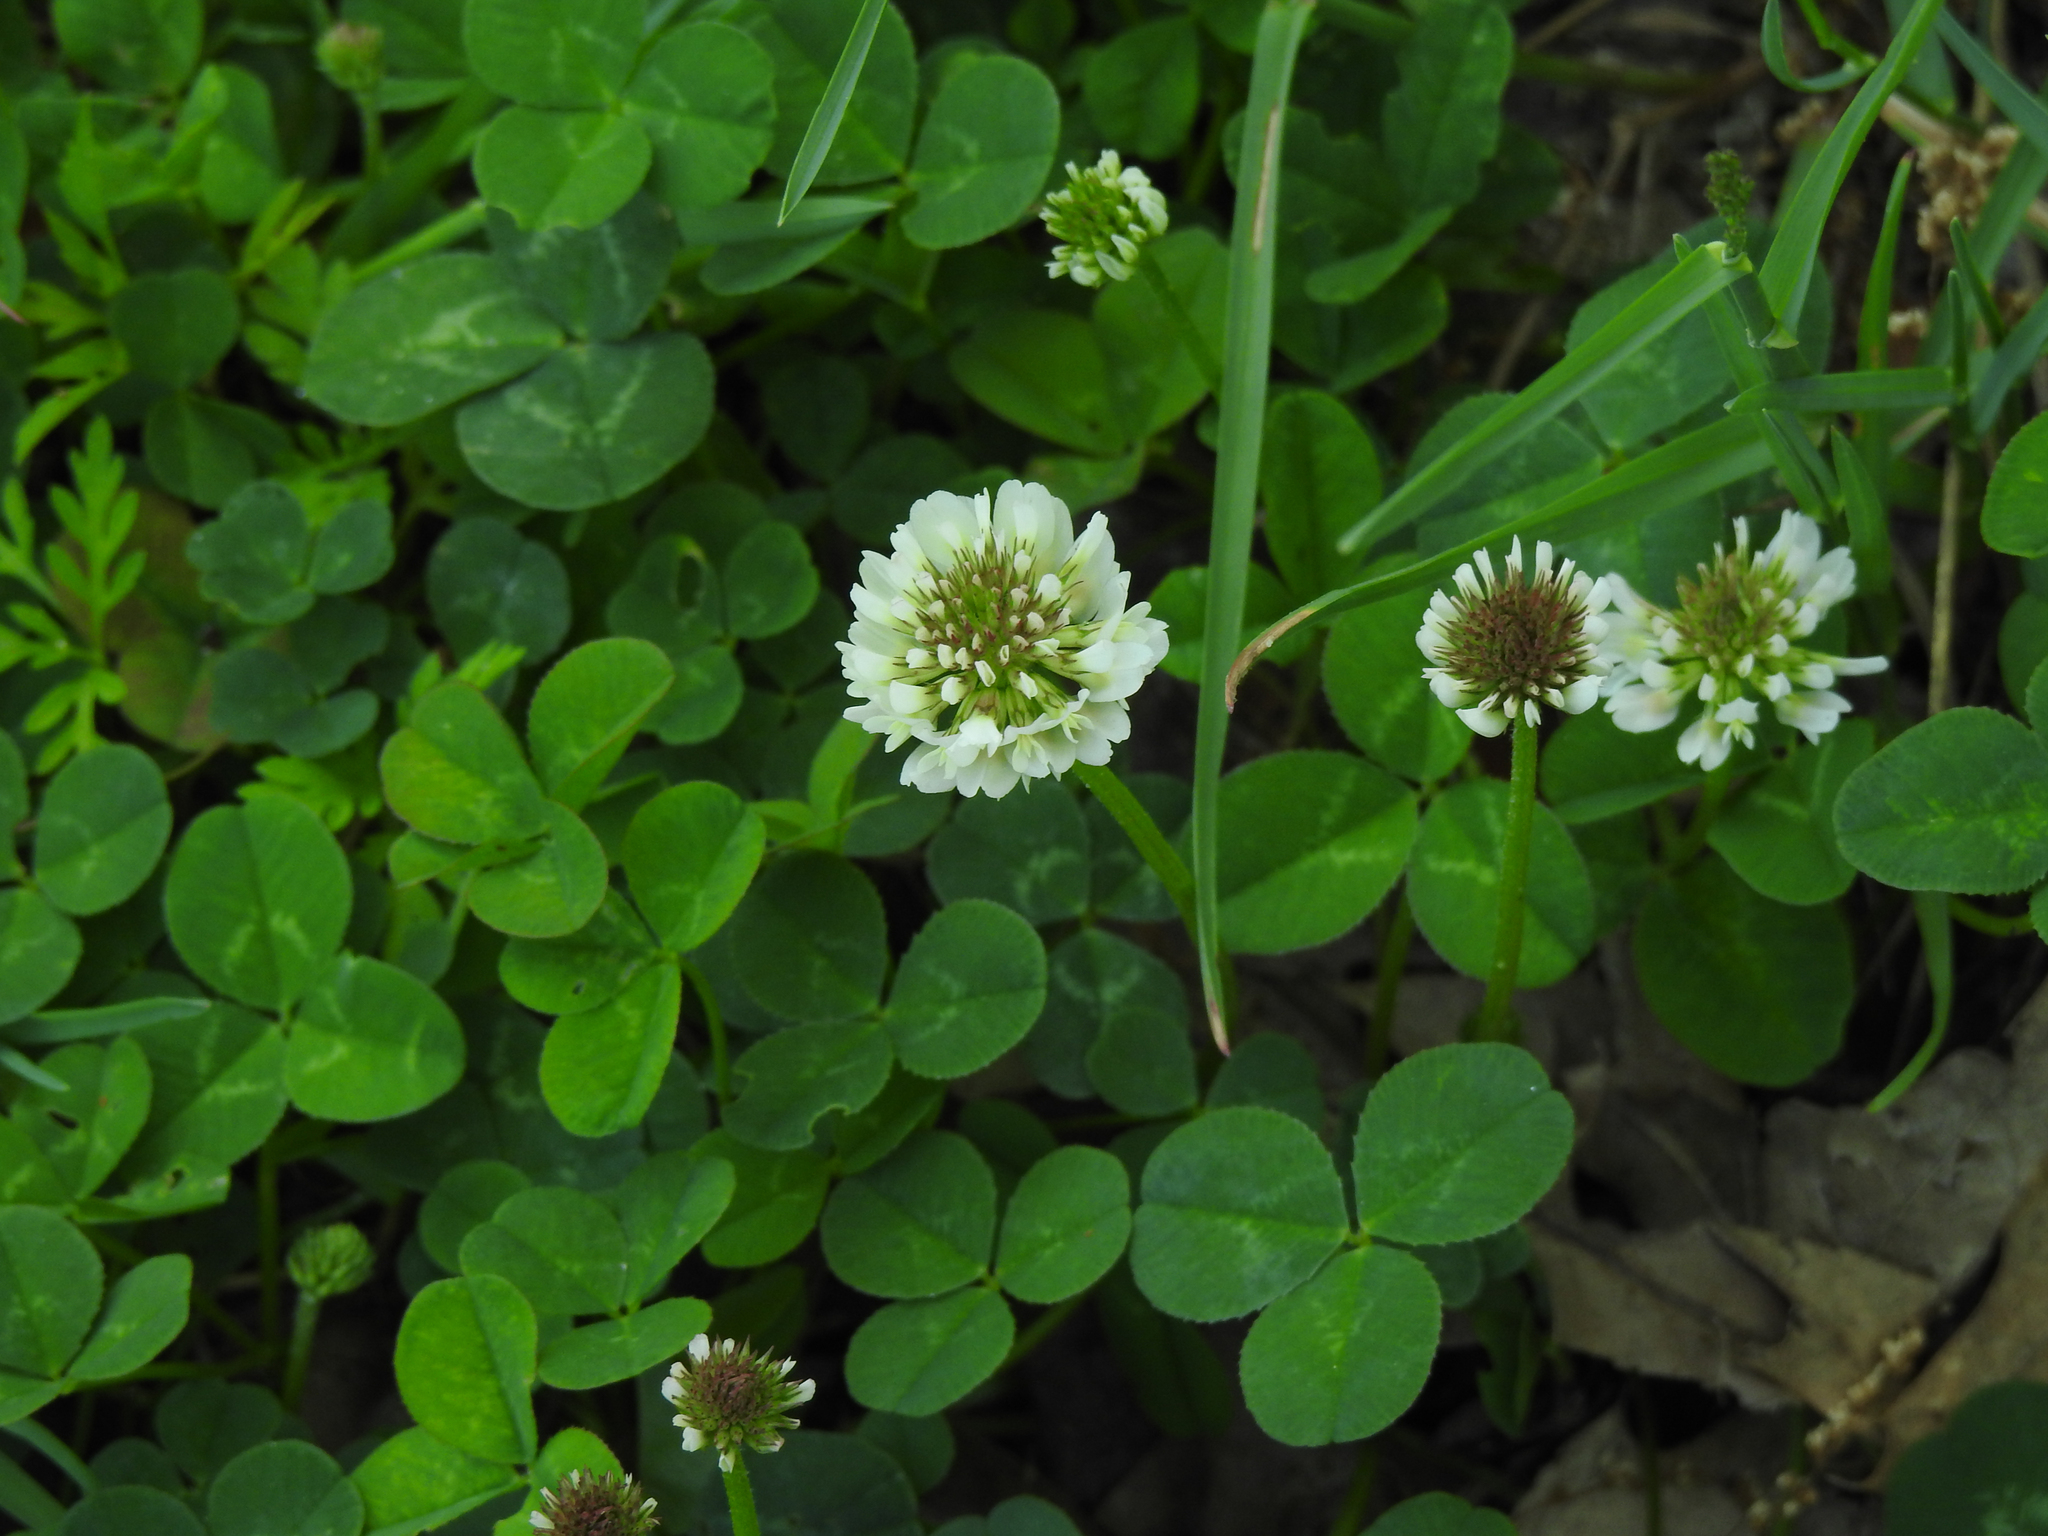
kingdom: Plantae
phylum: Tracheophyta
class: Magnoliopsida
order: Fabales
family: Fabaceae
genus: Trifolium
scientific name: Trifolium repens
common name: White clover
